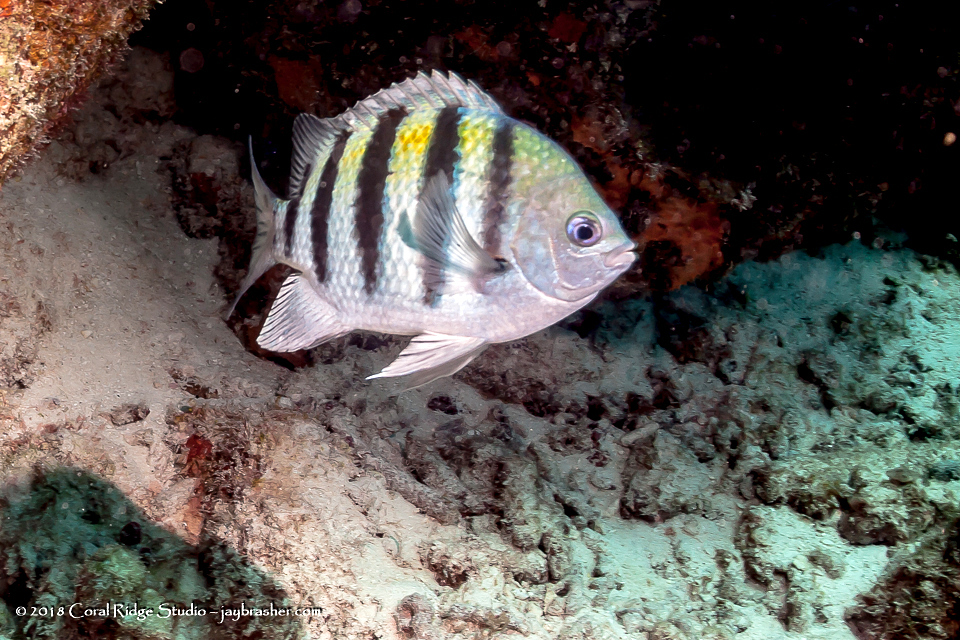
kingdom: Animalia
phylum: Chordata
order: Perciformes
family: Pomacentridae
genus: Abudefduf
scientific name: Abudefduf saxatilis
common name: Sergeant major
